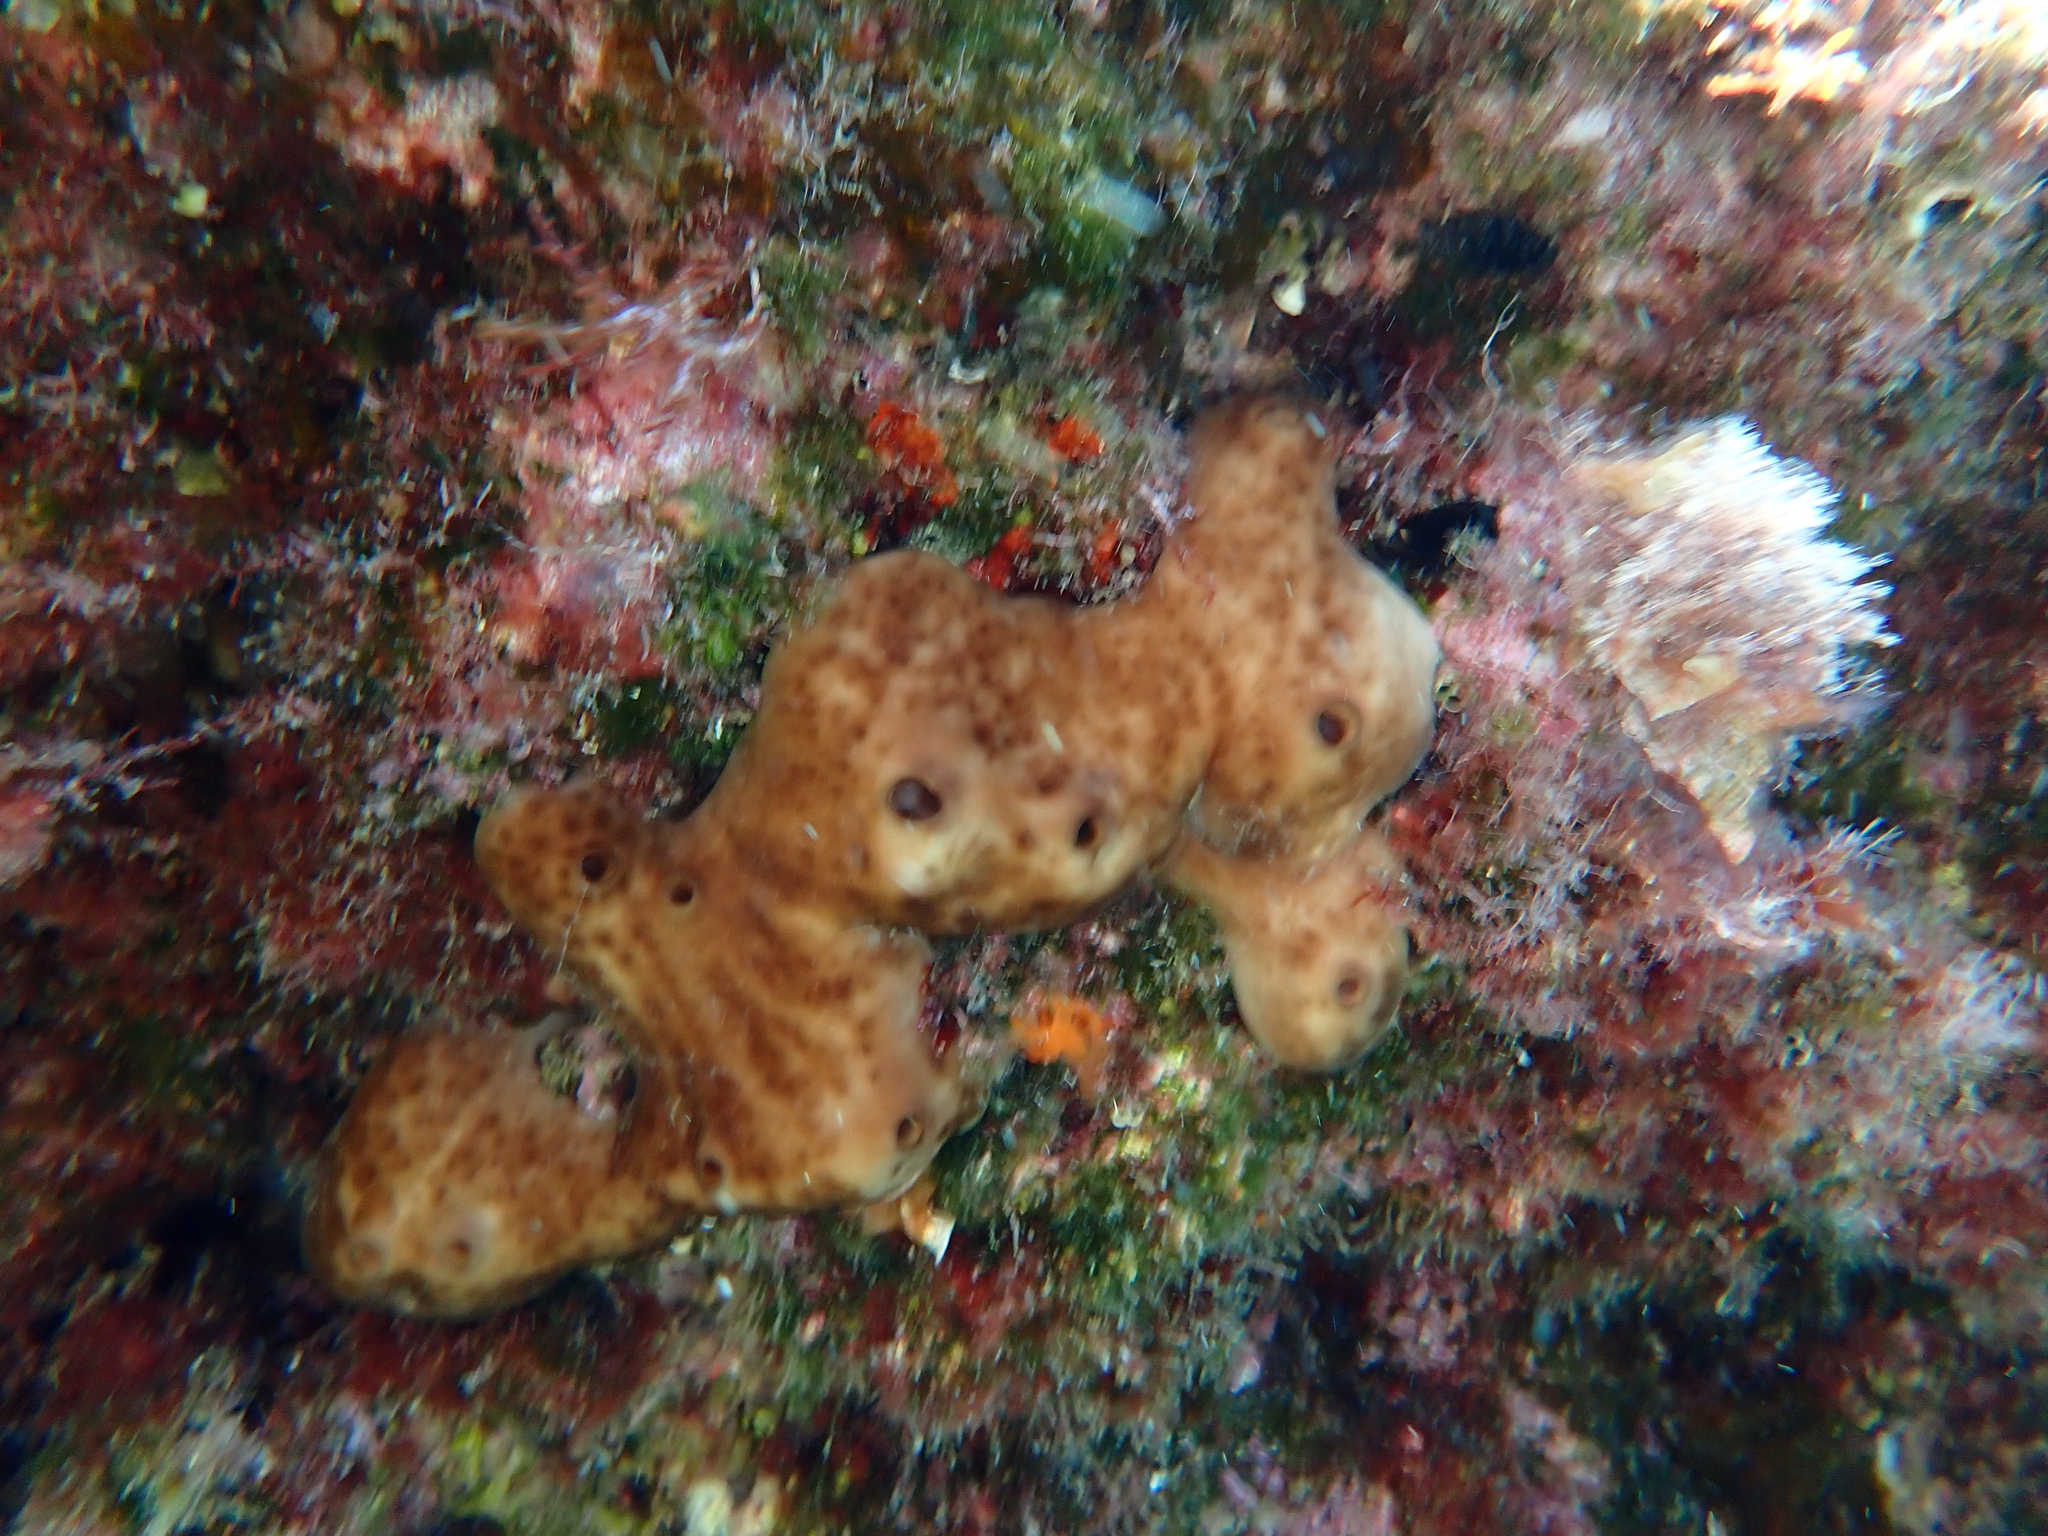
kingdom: Animalia
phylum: Porifera
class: Demospongiae
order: Chondrosiida
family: Chondrosiidae
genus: Chondrosia
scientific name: Chondrosia reniformis
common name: Chicken liver sponge
